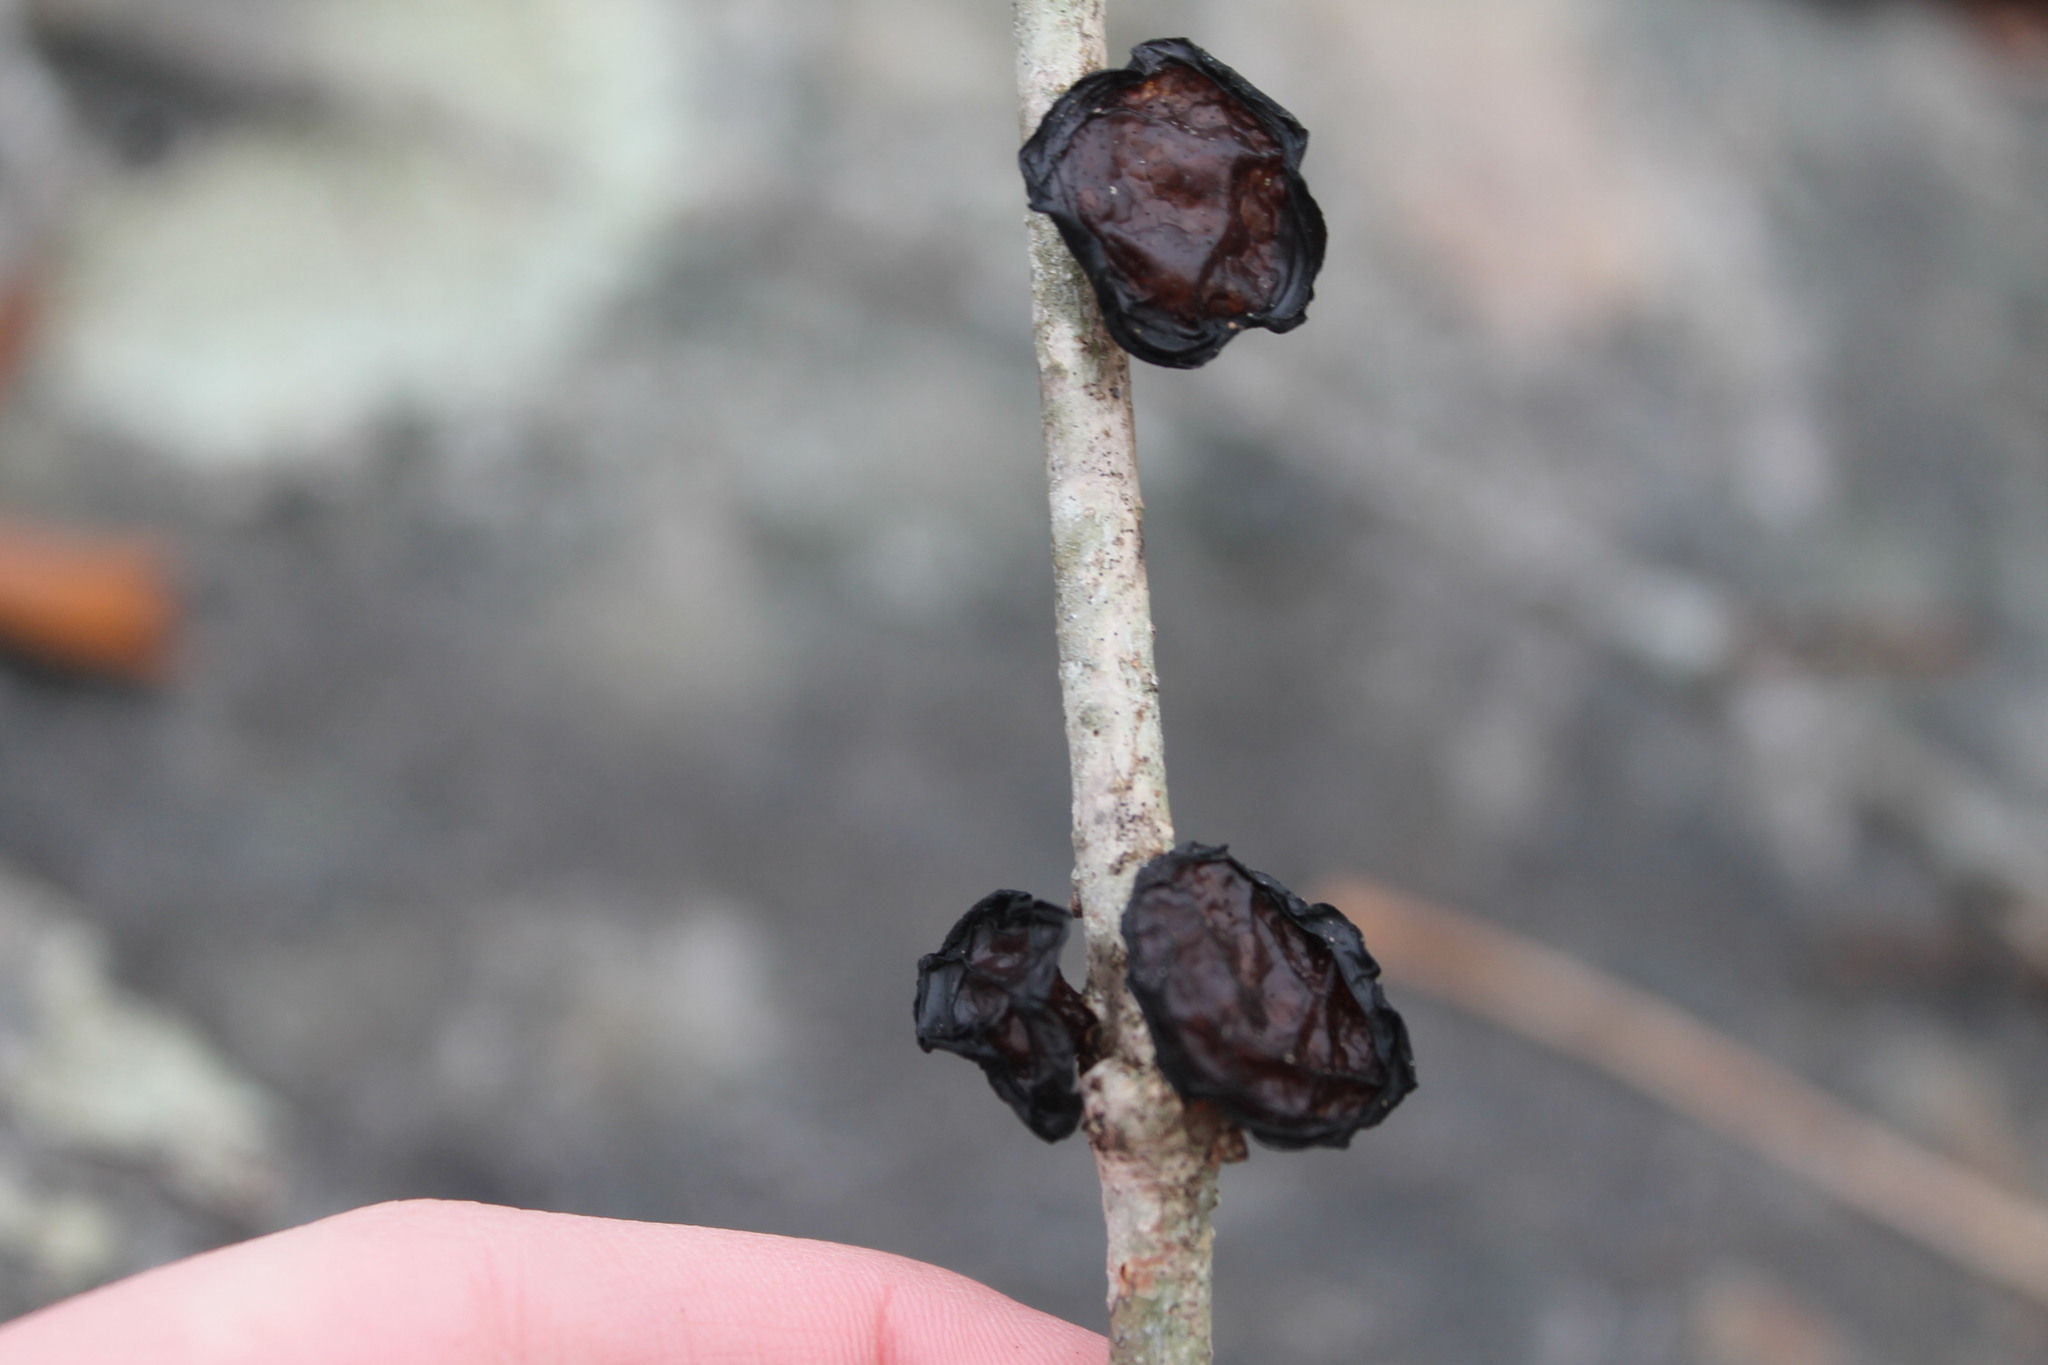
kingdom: Fungi
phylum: Basidiomycota
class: Agaricomycetes
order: Auriculariales
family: Auriculariaceae
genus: Exidia
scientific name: Exidia
